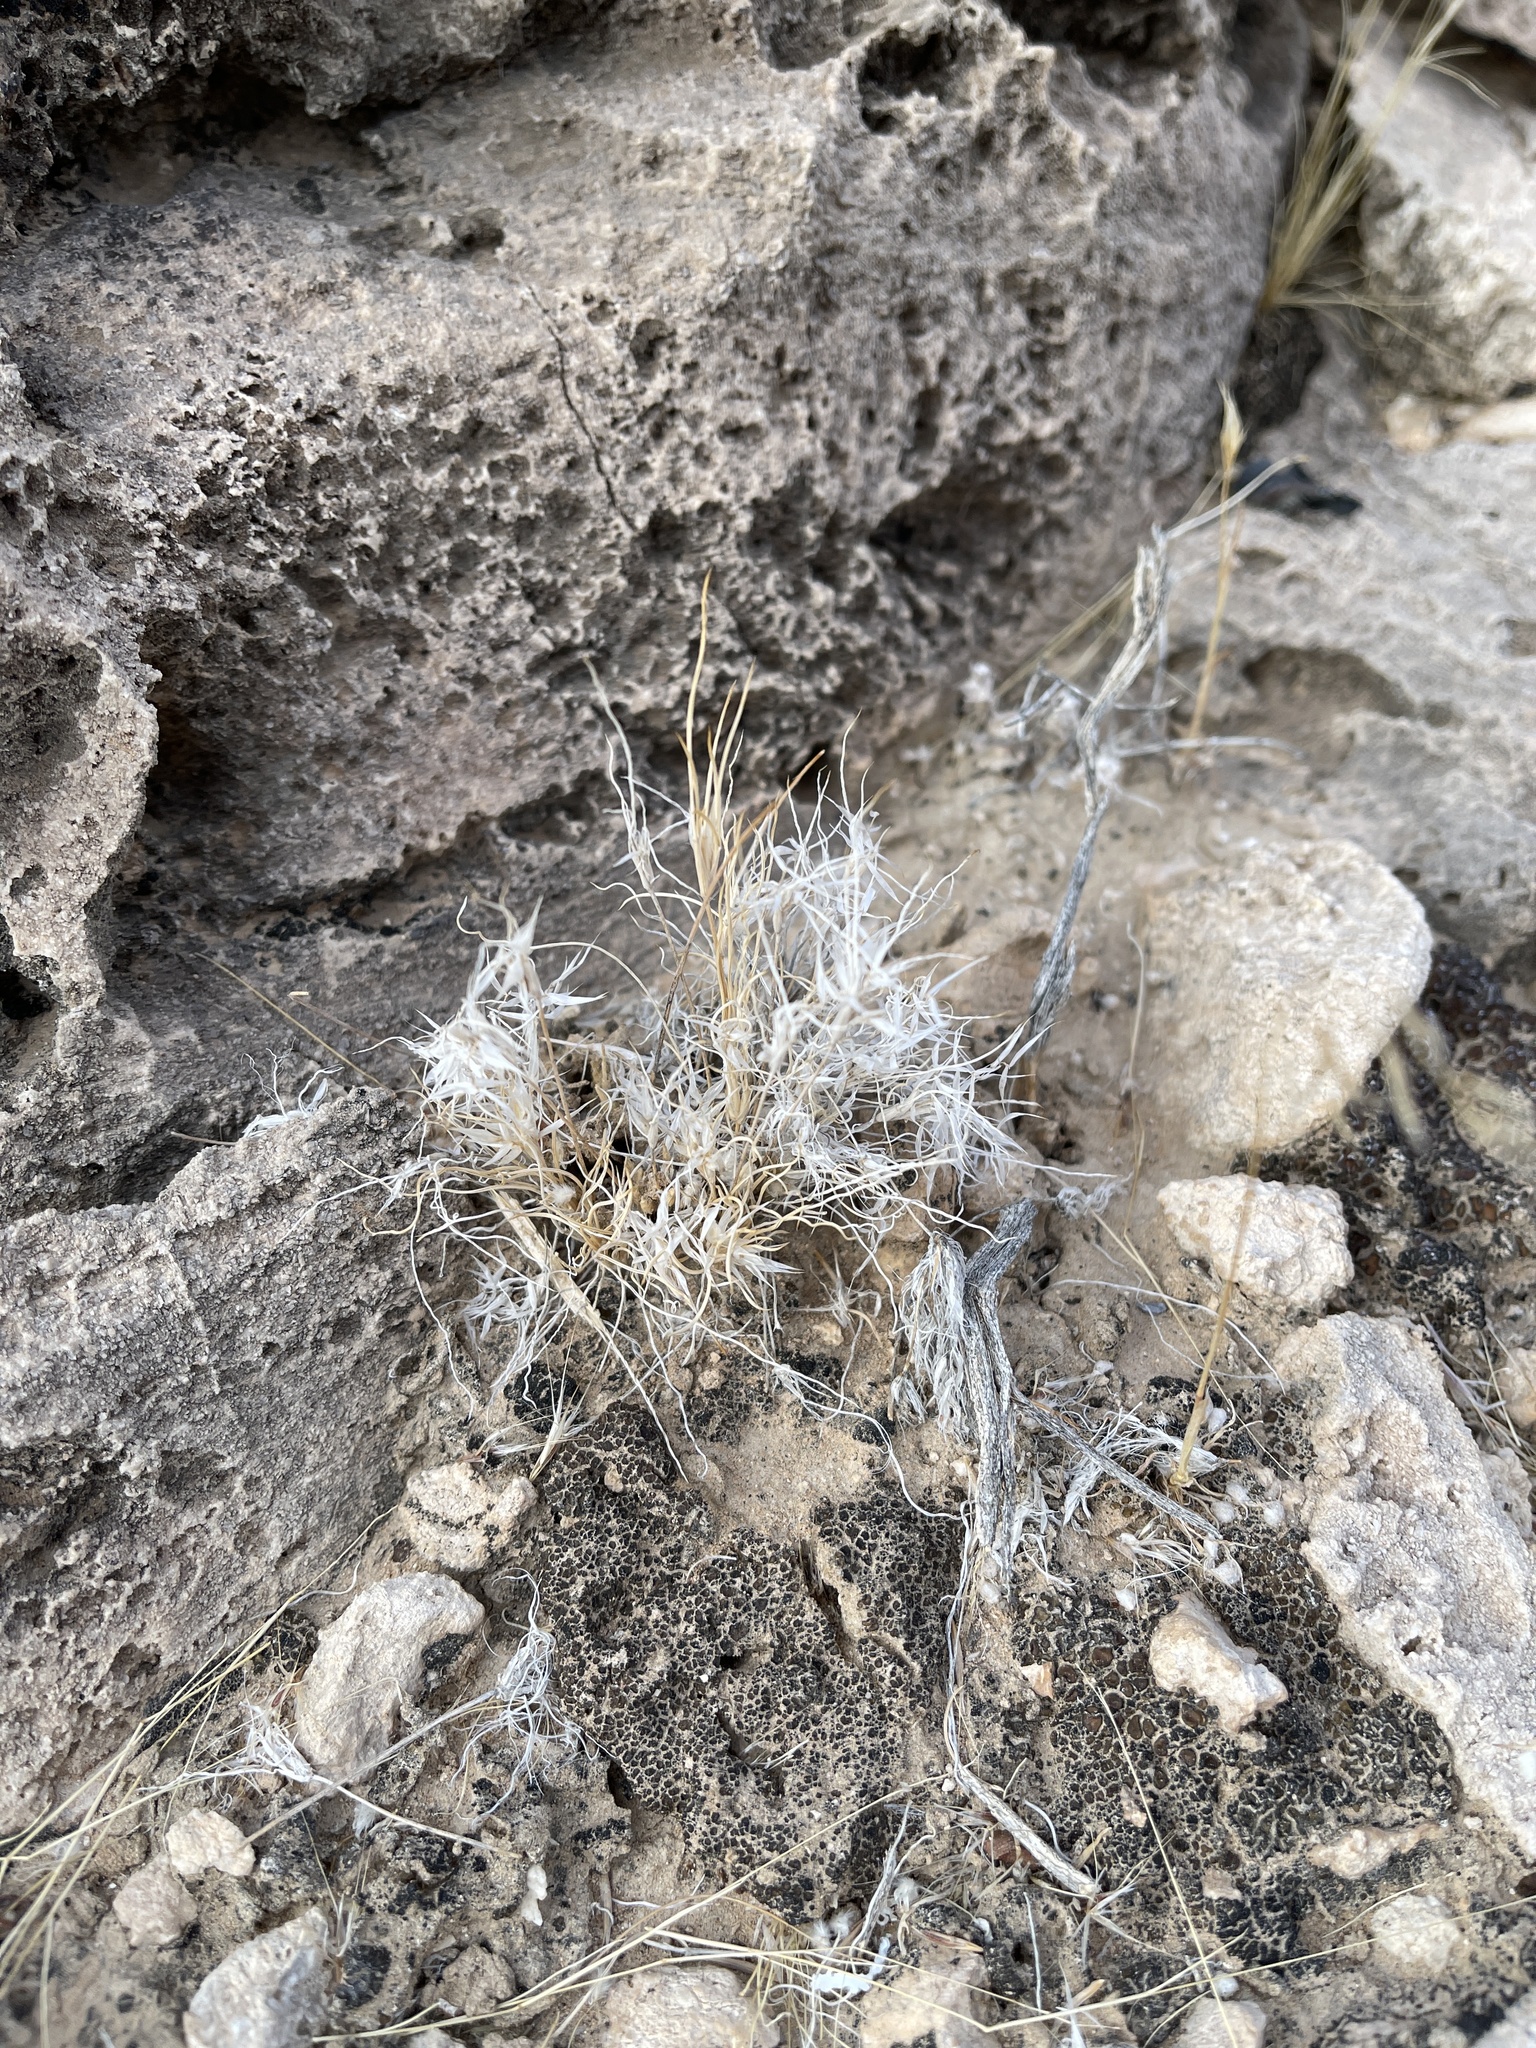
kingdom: Plantae
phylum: Tracheophyta
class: Liliopsida
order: Poales
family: Poaceae
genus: Dasyochloa
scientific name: Dasyochloa pulchella
